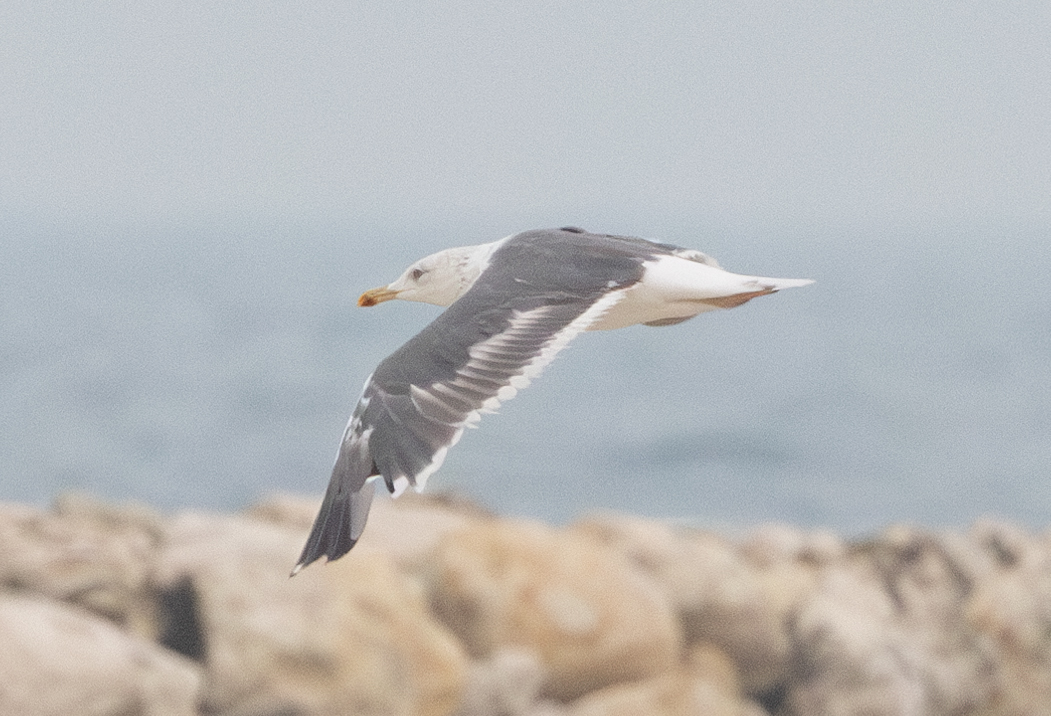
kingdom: Animalia
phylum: Chordata
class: Aves
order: Charadriiformes
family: Laridae
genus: Larus
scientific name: Larus fuscus
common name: Lesser black-backed gull
